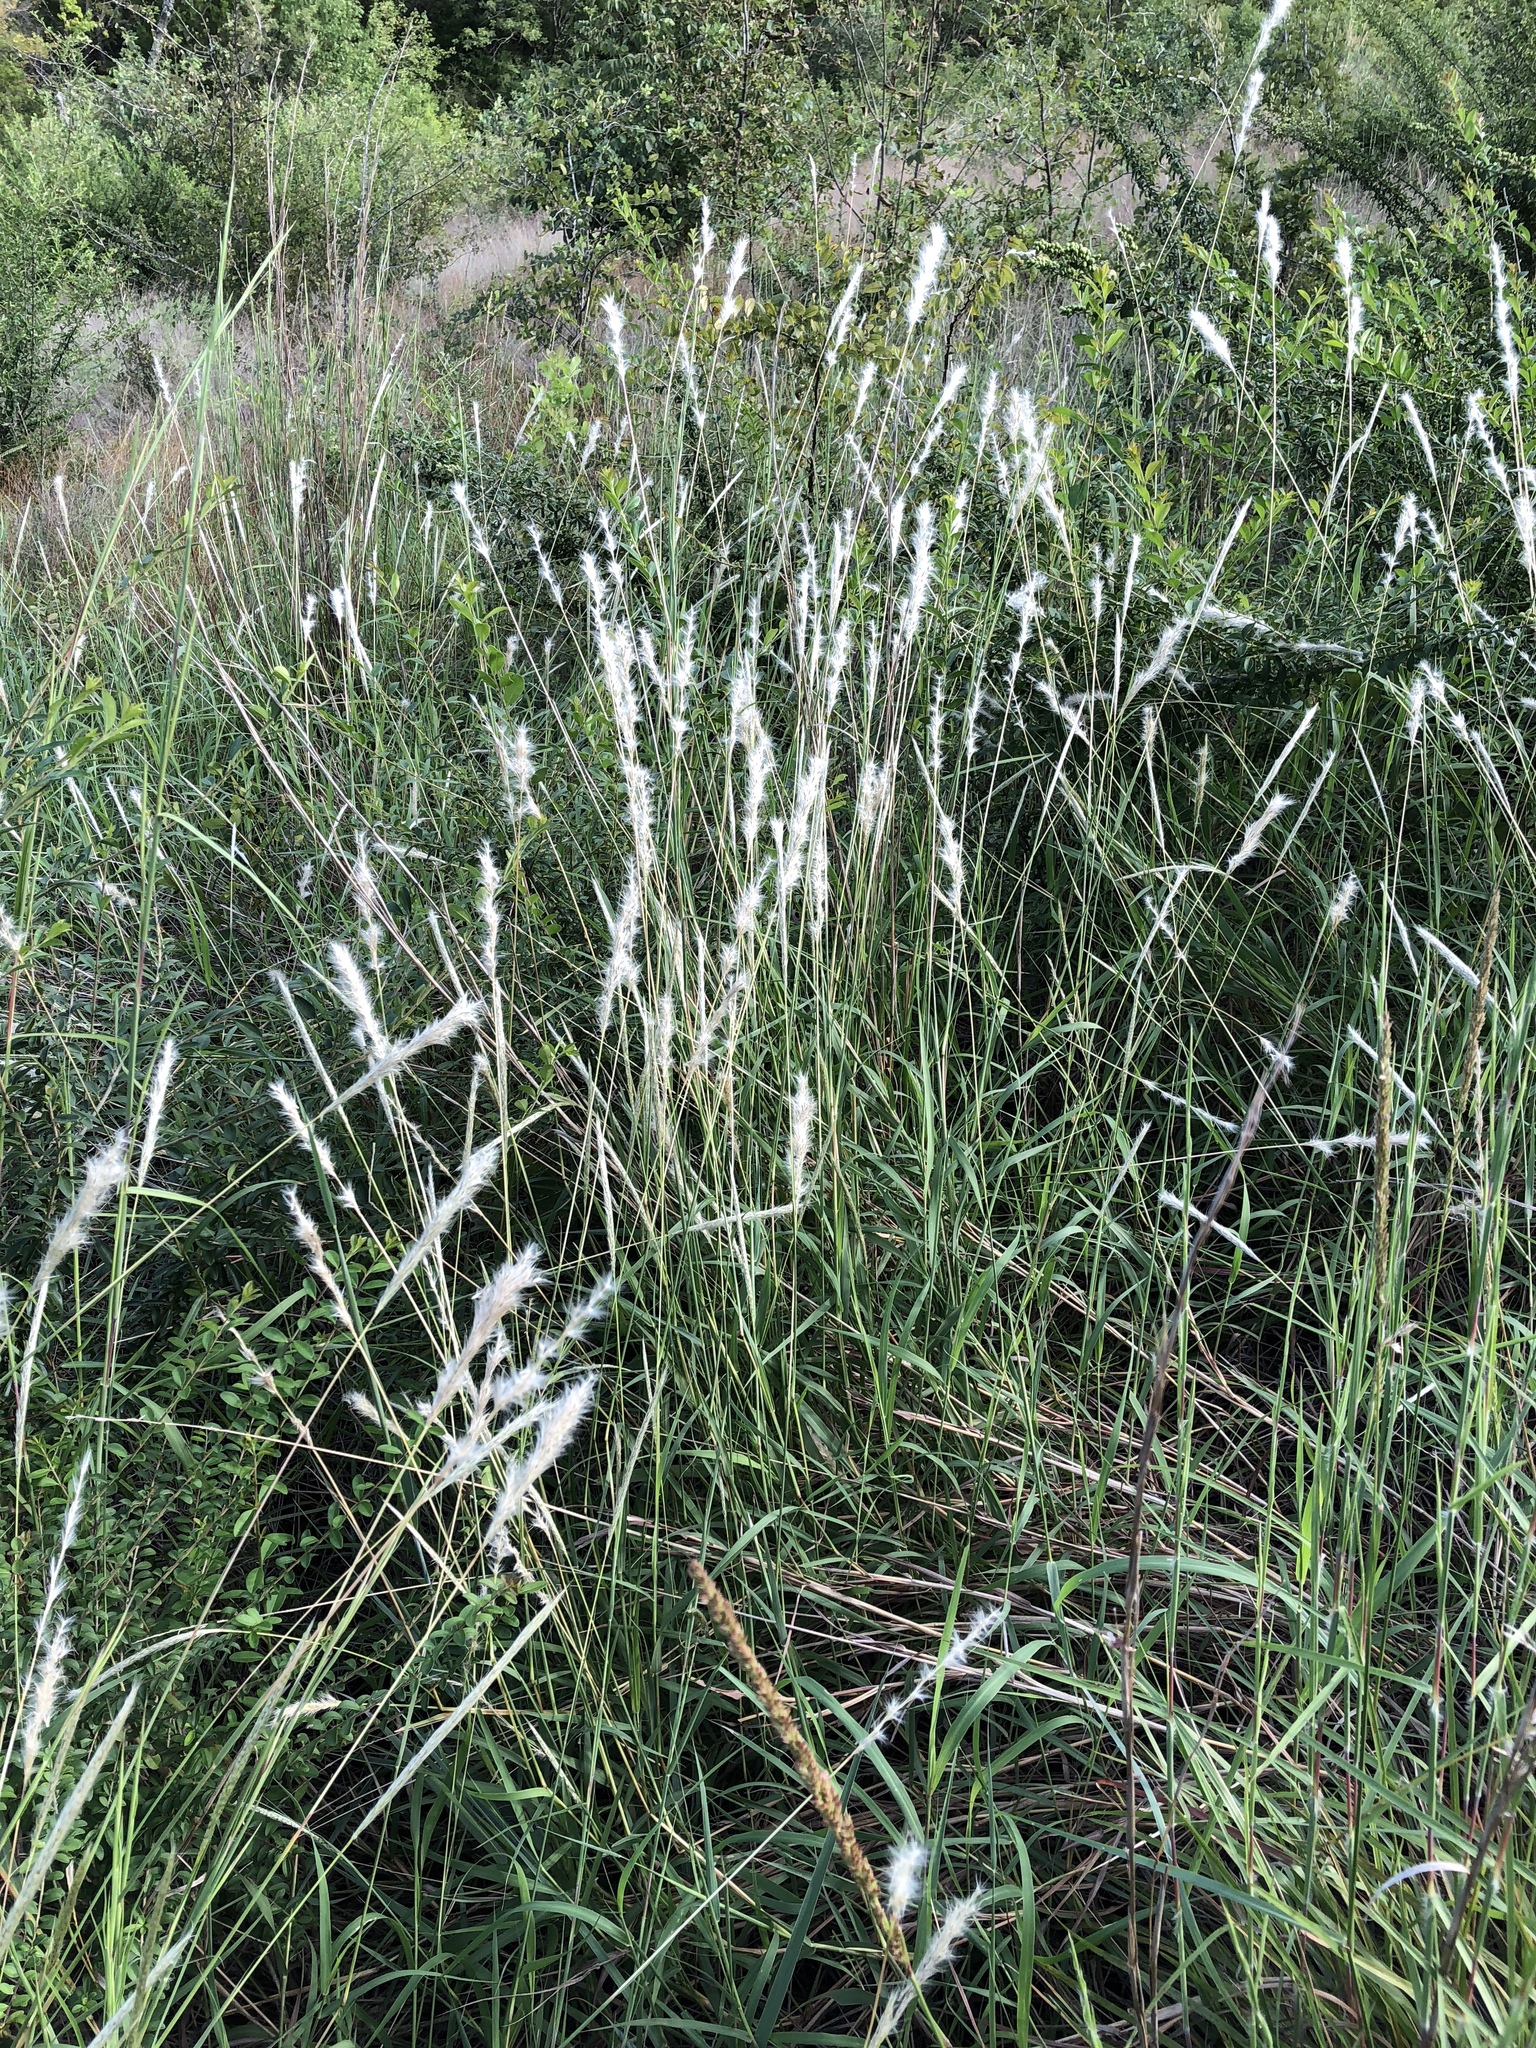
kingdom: Plantae
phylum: Tracheophyta
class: Liliopsida
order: Poales
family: Poaceae
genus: Bothriochloa
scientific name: Bothriochloa torreyana
